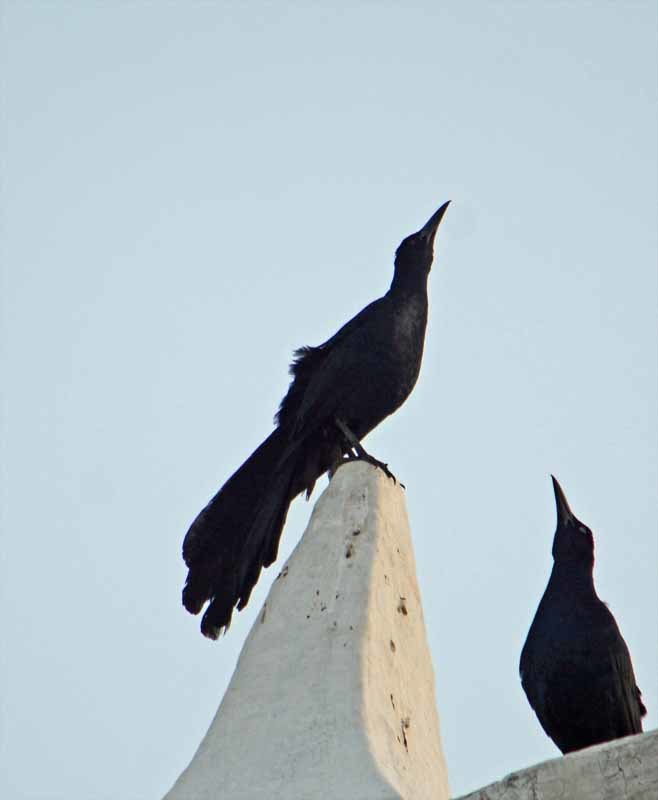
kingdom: Animalia
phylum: Chordata
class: Aves
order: Passeriformes
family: Icteridae
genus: Quiscalus
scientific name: Quiscalus mexicanus
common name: Great-tailed grackle
